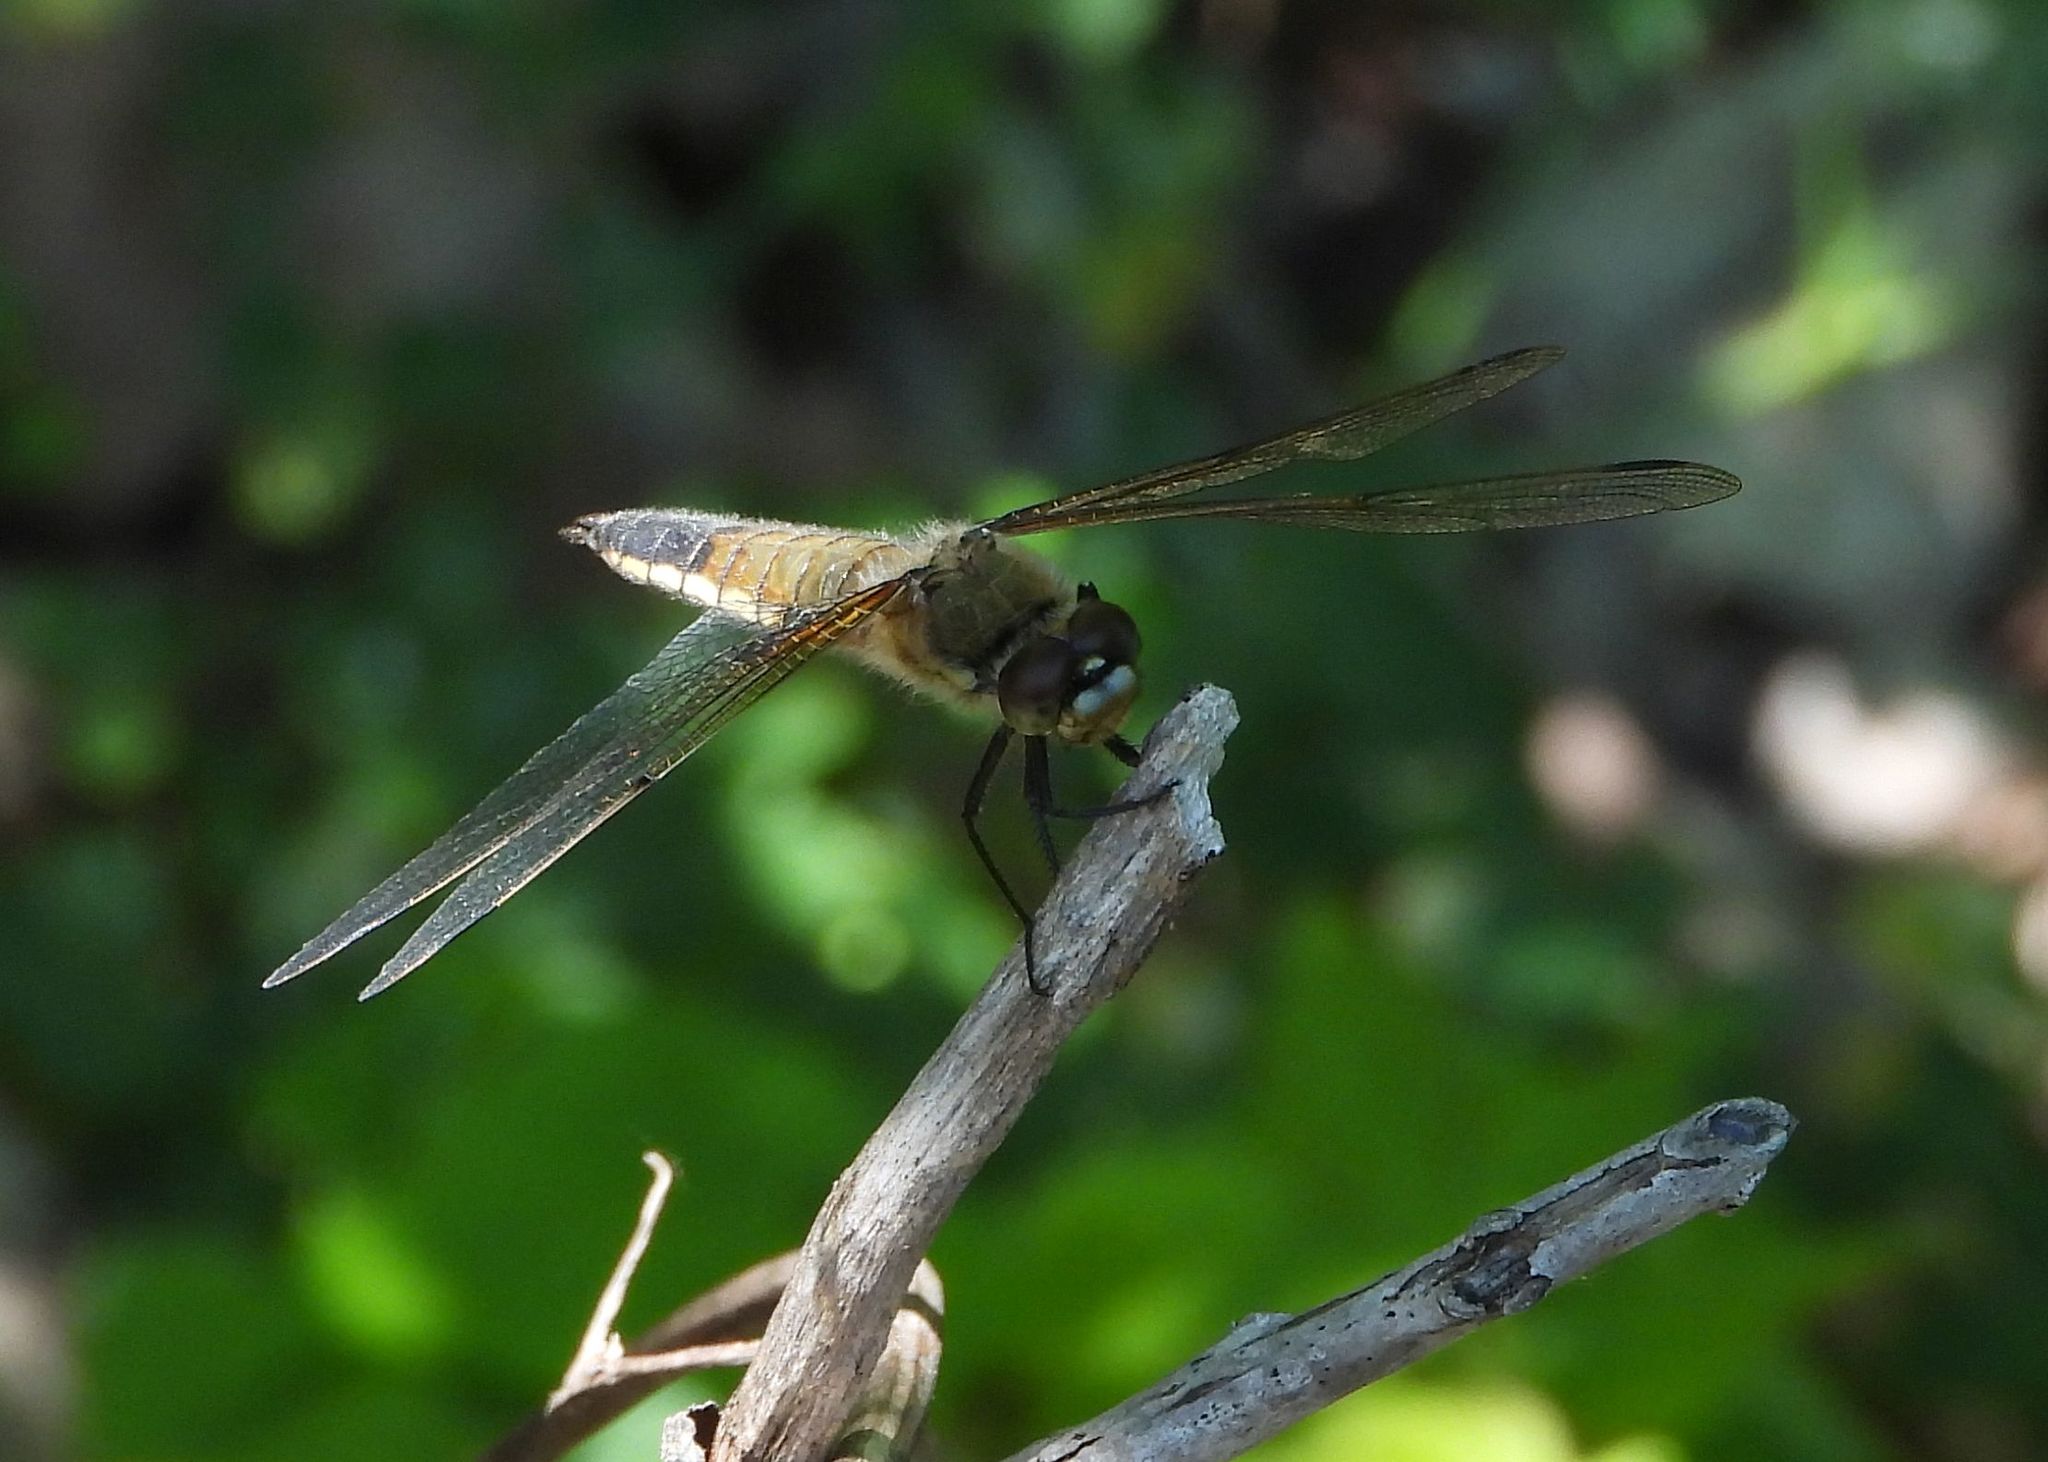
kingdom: Animalia
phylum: Arthropoda
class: Insecta
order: Odonata
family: Libellulidae
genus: Libellula
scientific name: Libellula quadrimaculata
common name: Four-spotted chaser
